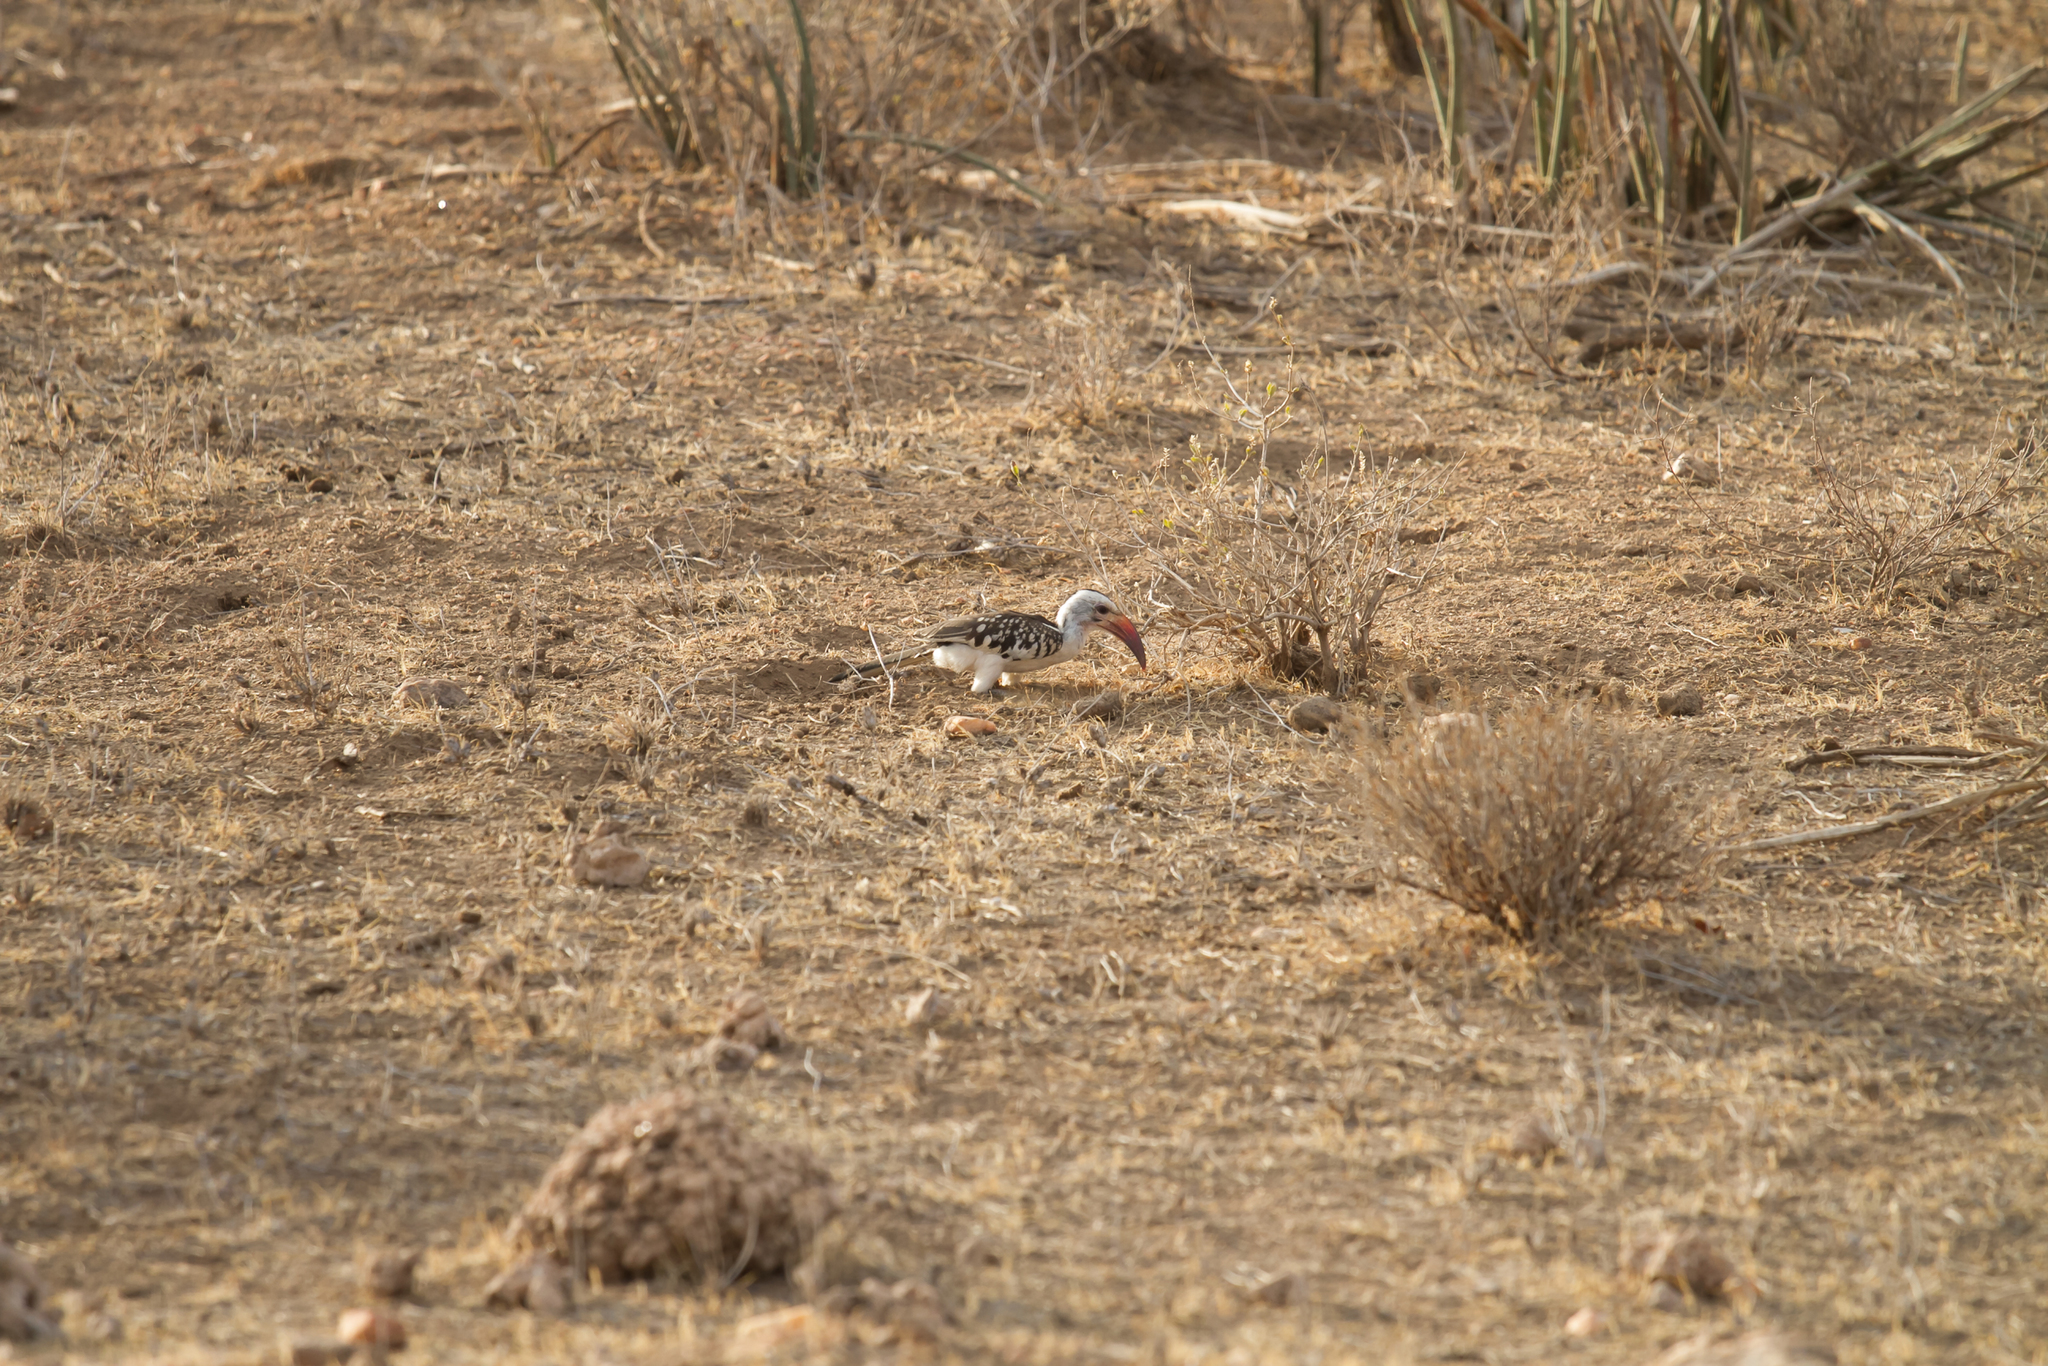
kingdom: Animalia
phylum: Chordata
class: Aves
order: Bucerotiformes
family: Bucerotidae
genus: Tockus
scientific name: Tockus erythrorhynchus
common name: Northern red-billed hornbill
